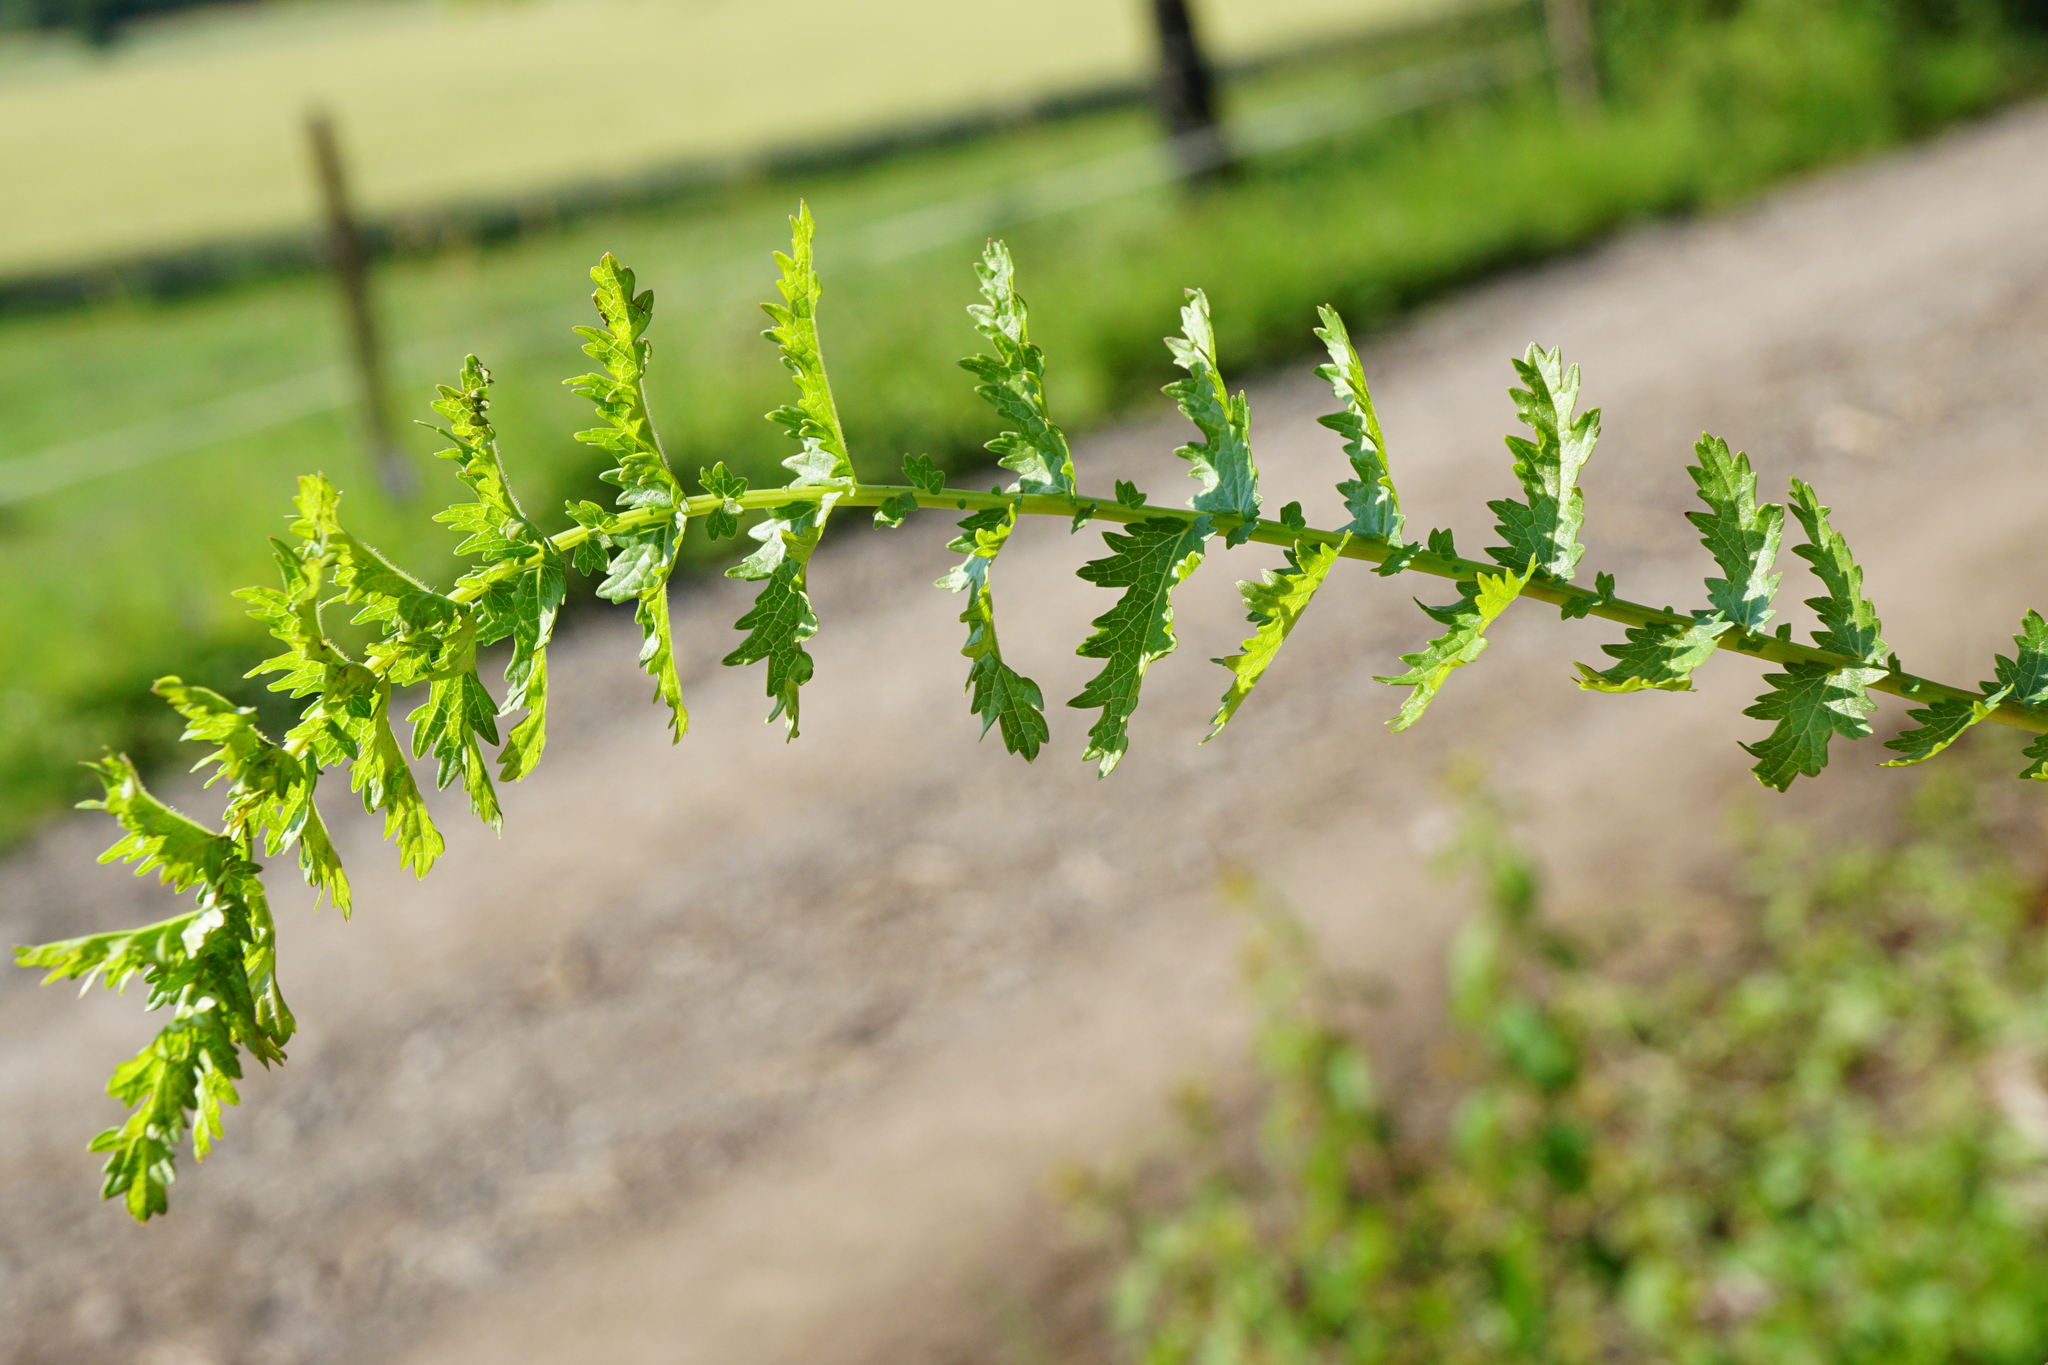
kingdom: Plantae
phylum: Tracheophyta
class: Magnoliopsida
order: Rosales
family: Rosaceae
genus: Filipendula
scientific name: Filipendula vulgaris
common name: Dropwort
